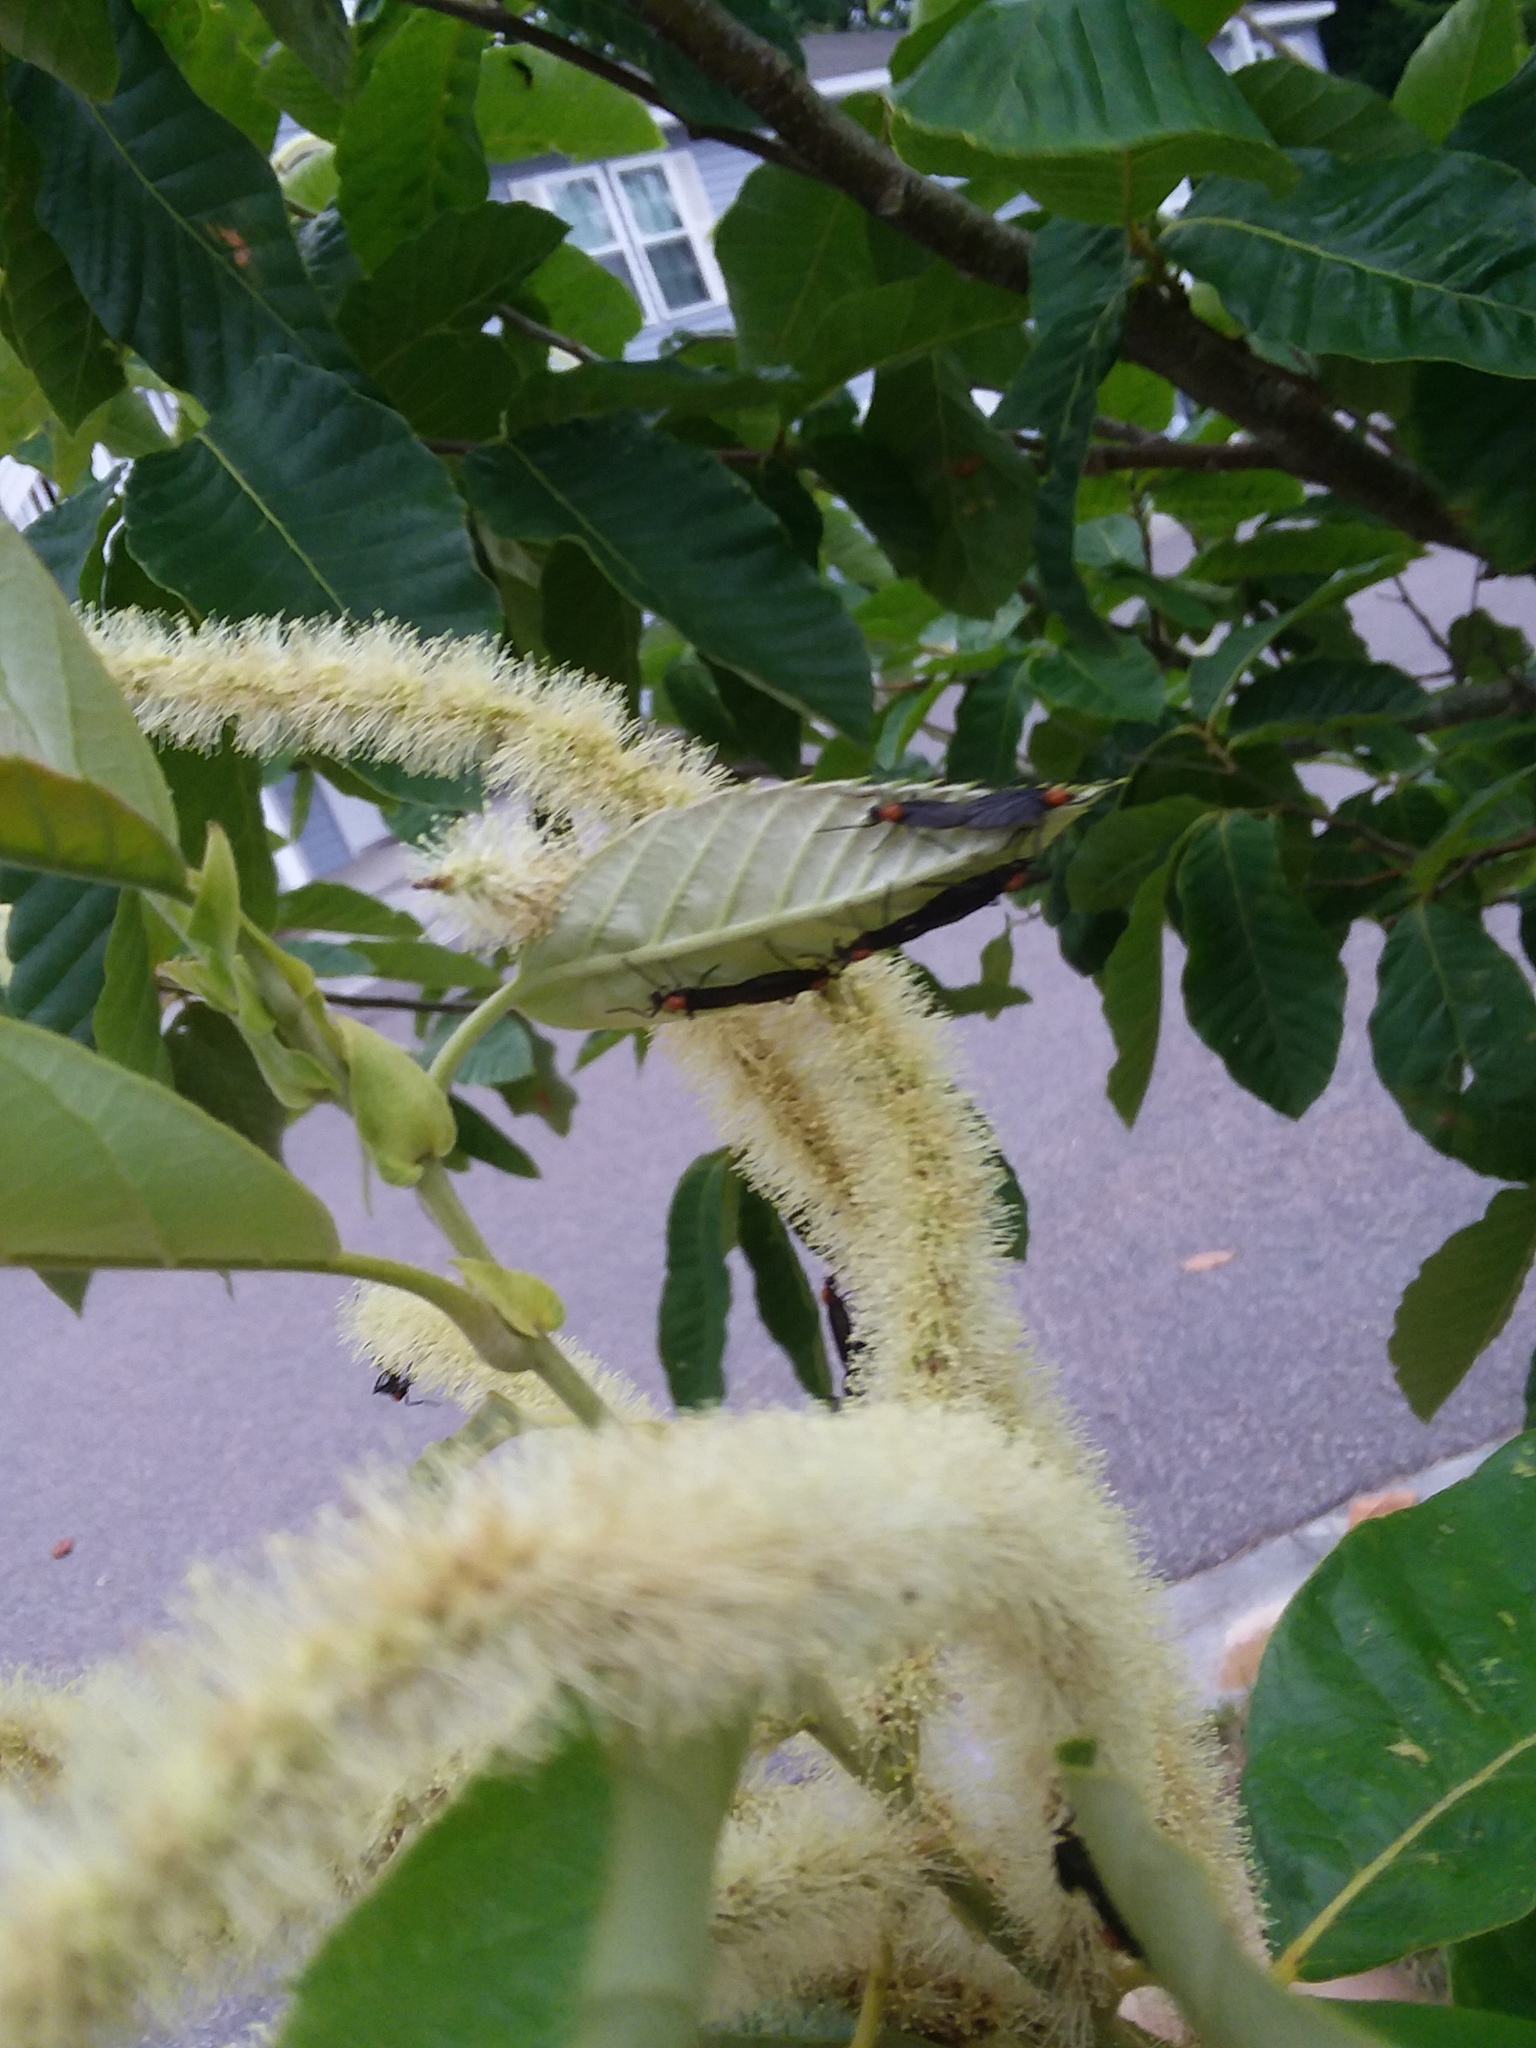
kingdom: Animalia
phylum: Arthropoda
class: Insecta
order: Diptera
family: Bibionidae
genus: Plecia
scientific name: Plecia nearctica
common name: March fly
